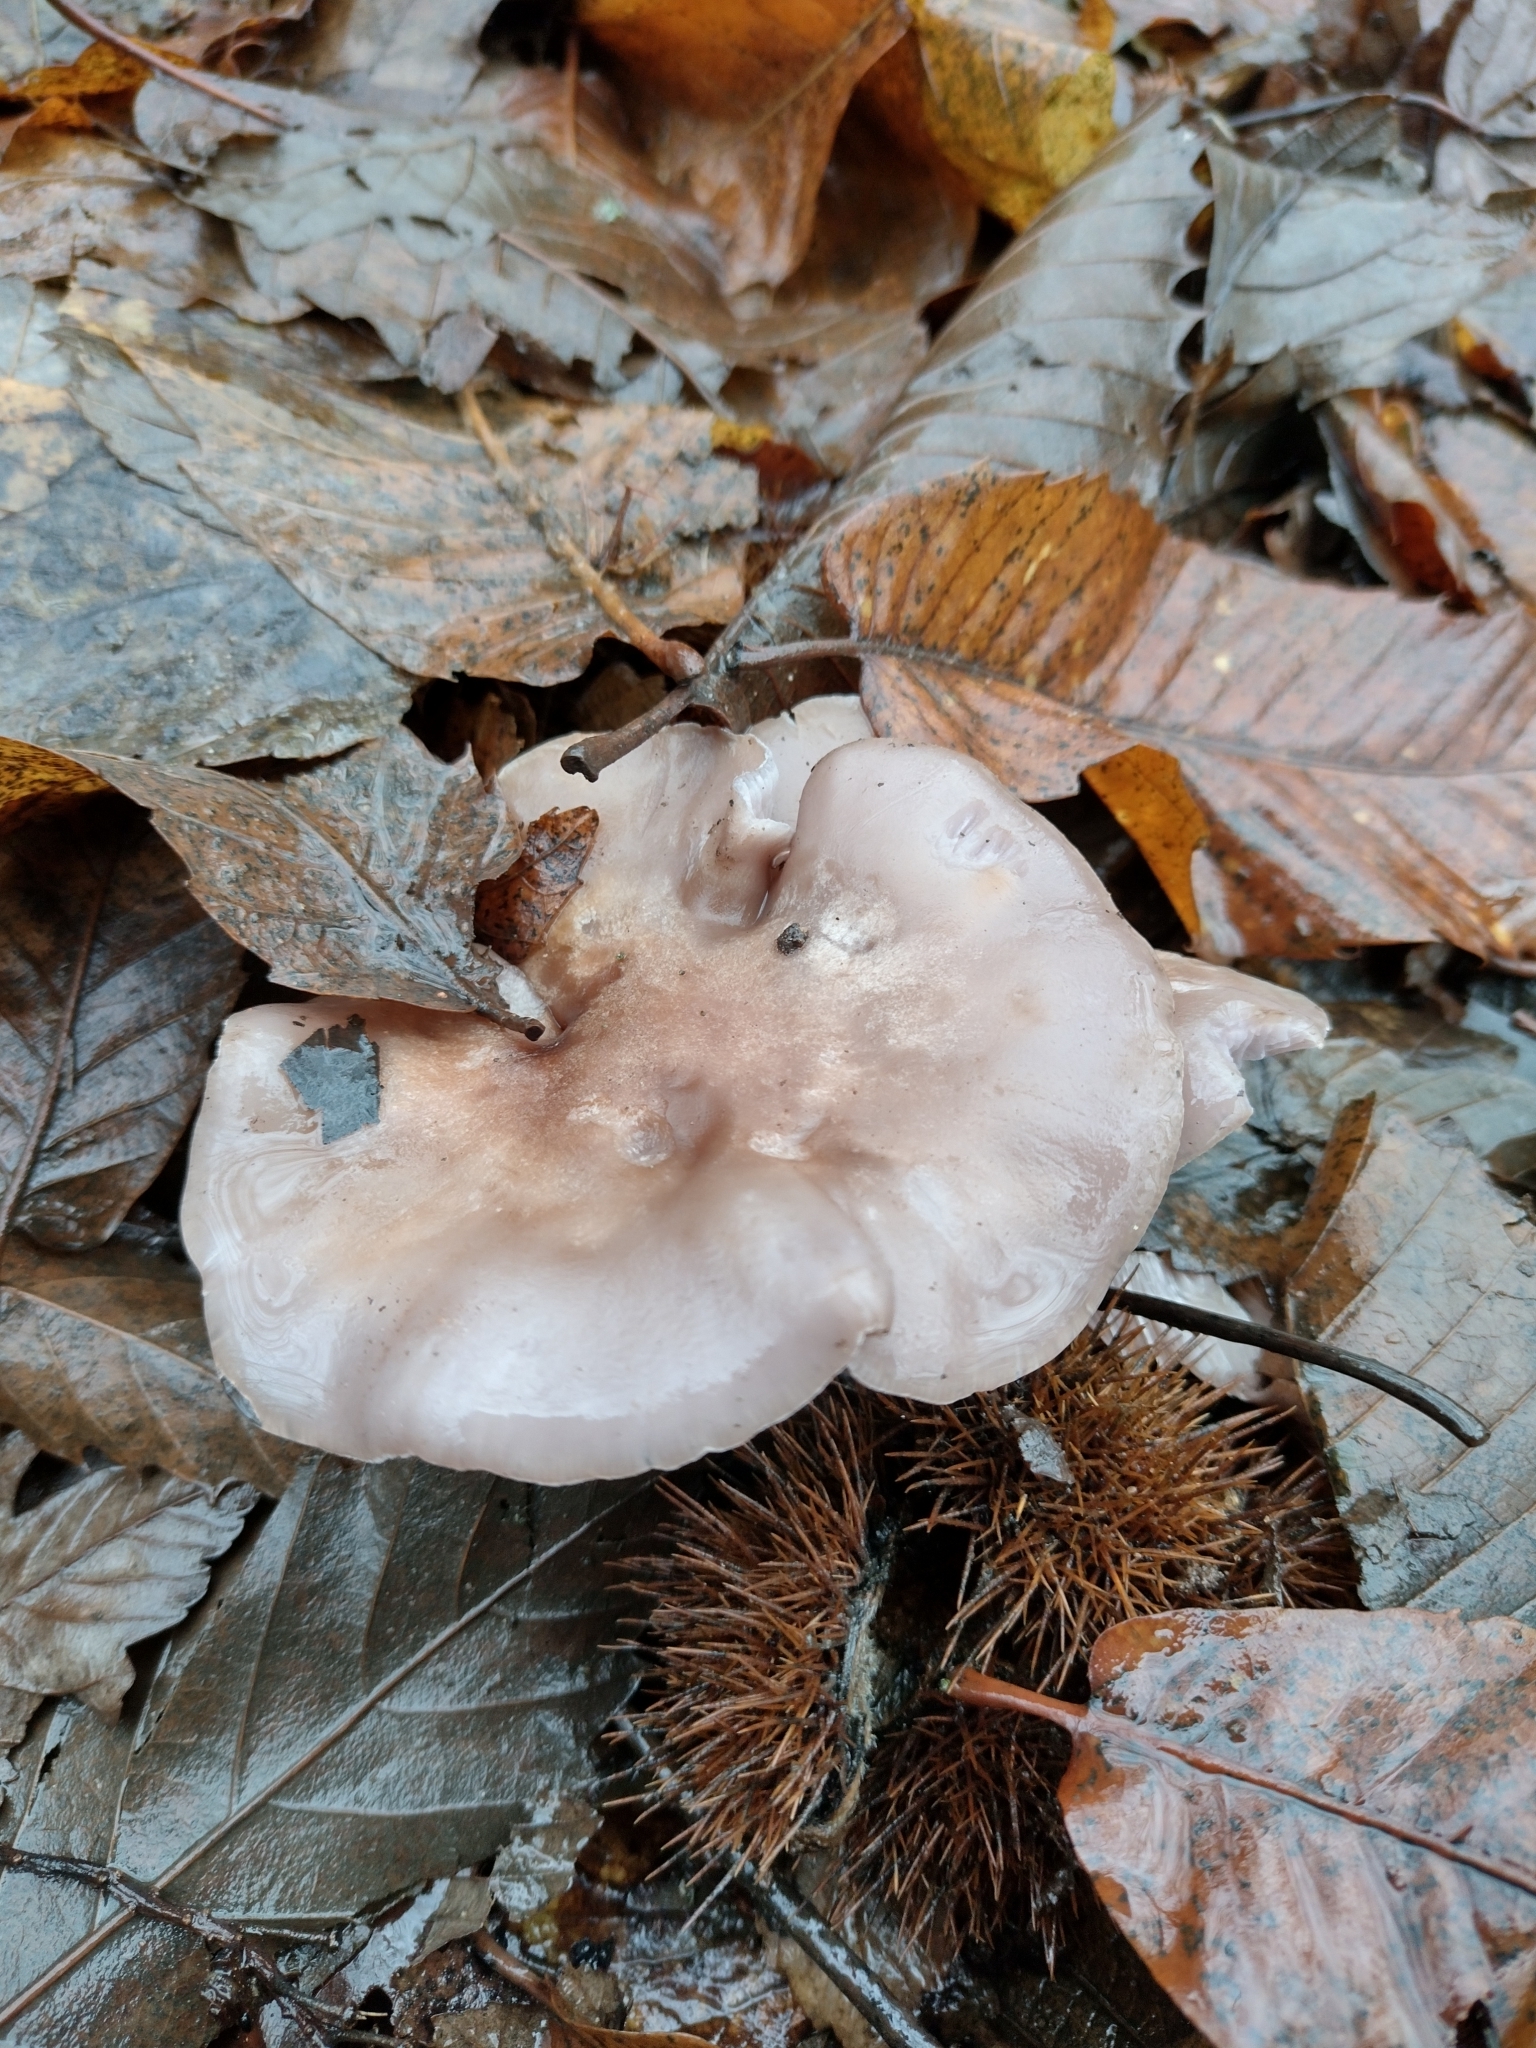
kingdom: Fungi
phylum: Basidiomycota
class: Agaricomycetes
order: Agaricales
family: Tricholomataceae
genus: Collybia
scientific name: Collybia
